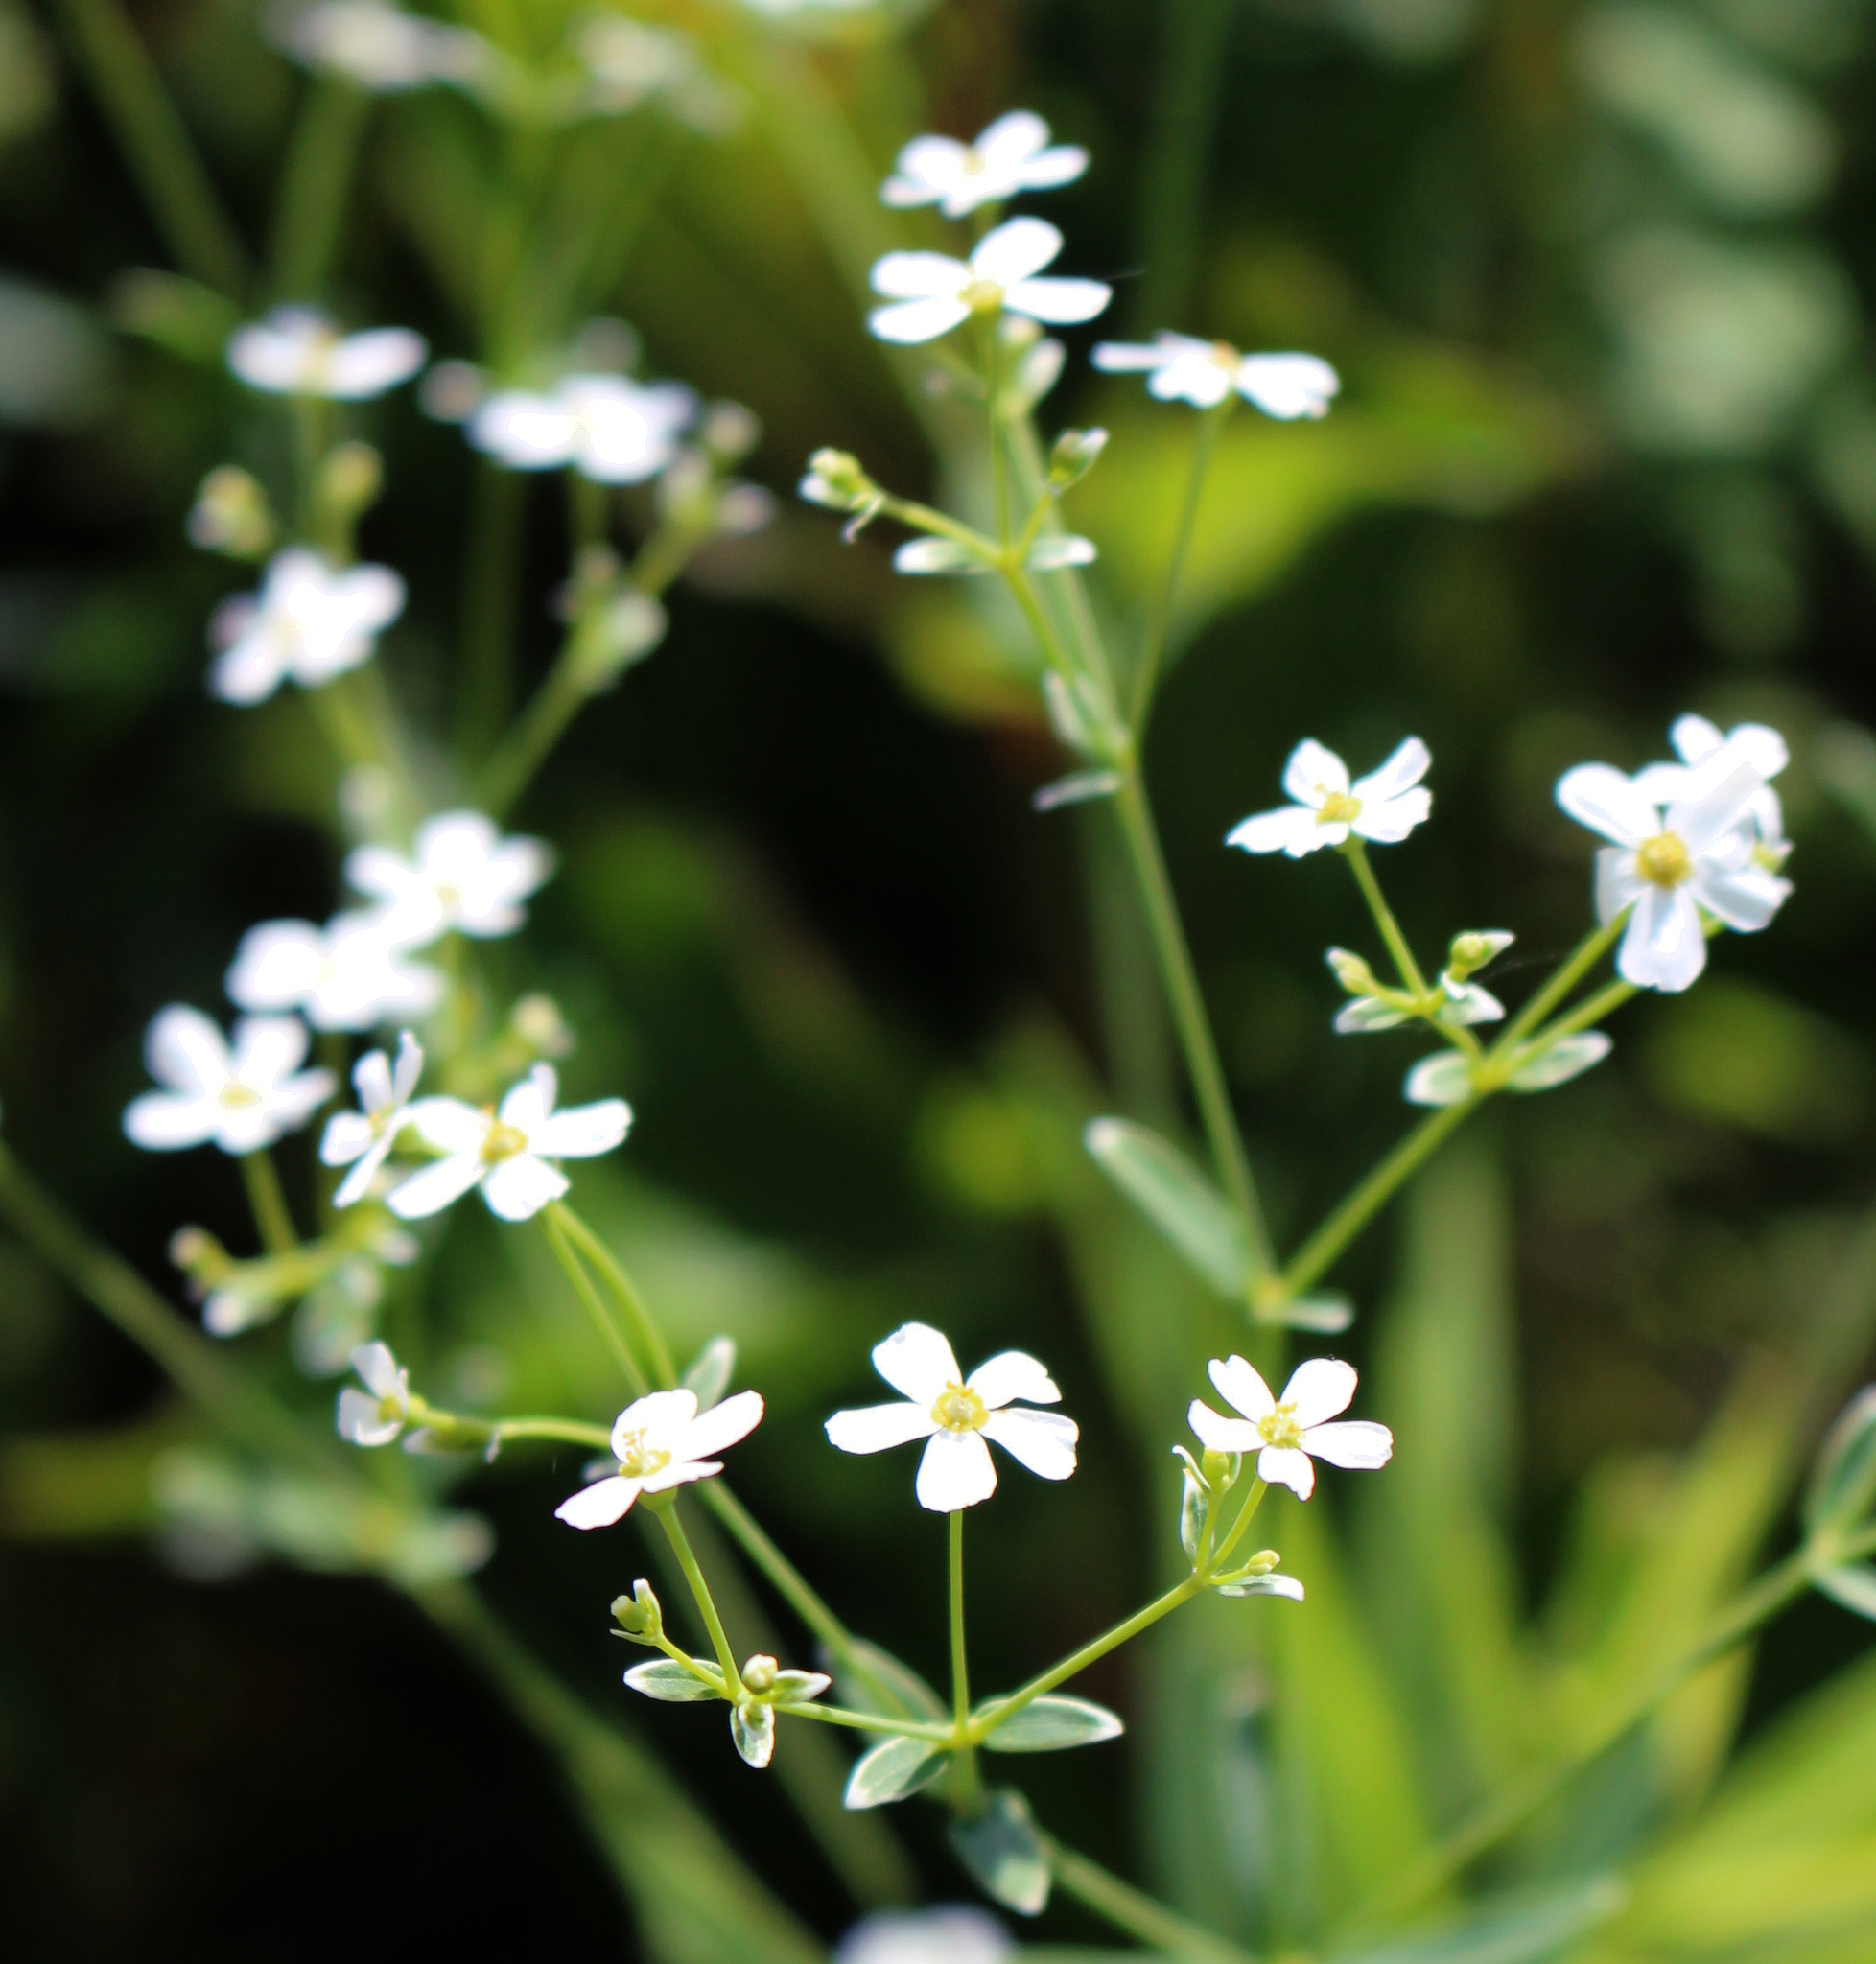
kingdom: Plantae
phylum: Tracheophyta
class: Magnoliopsida
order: Malpighiales
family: Euphorbiaceae
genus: Euphorbia
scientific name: Euphorbia corollata
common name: Flowering spurge
